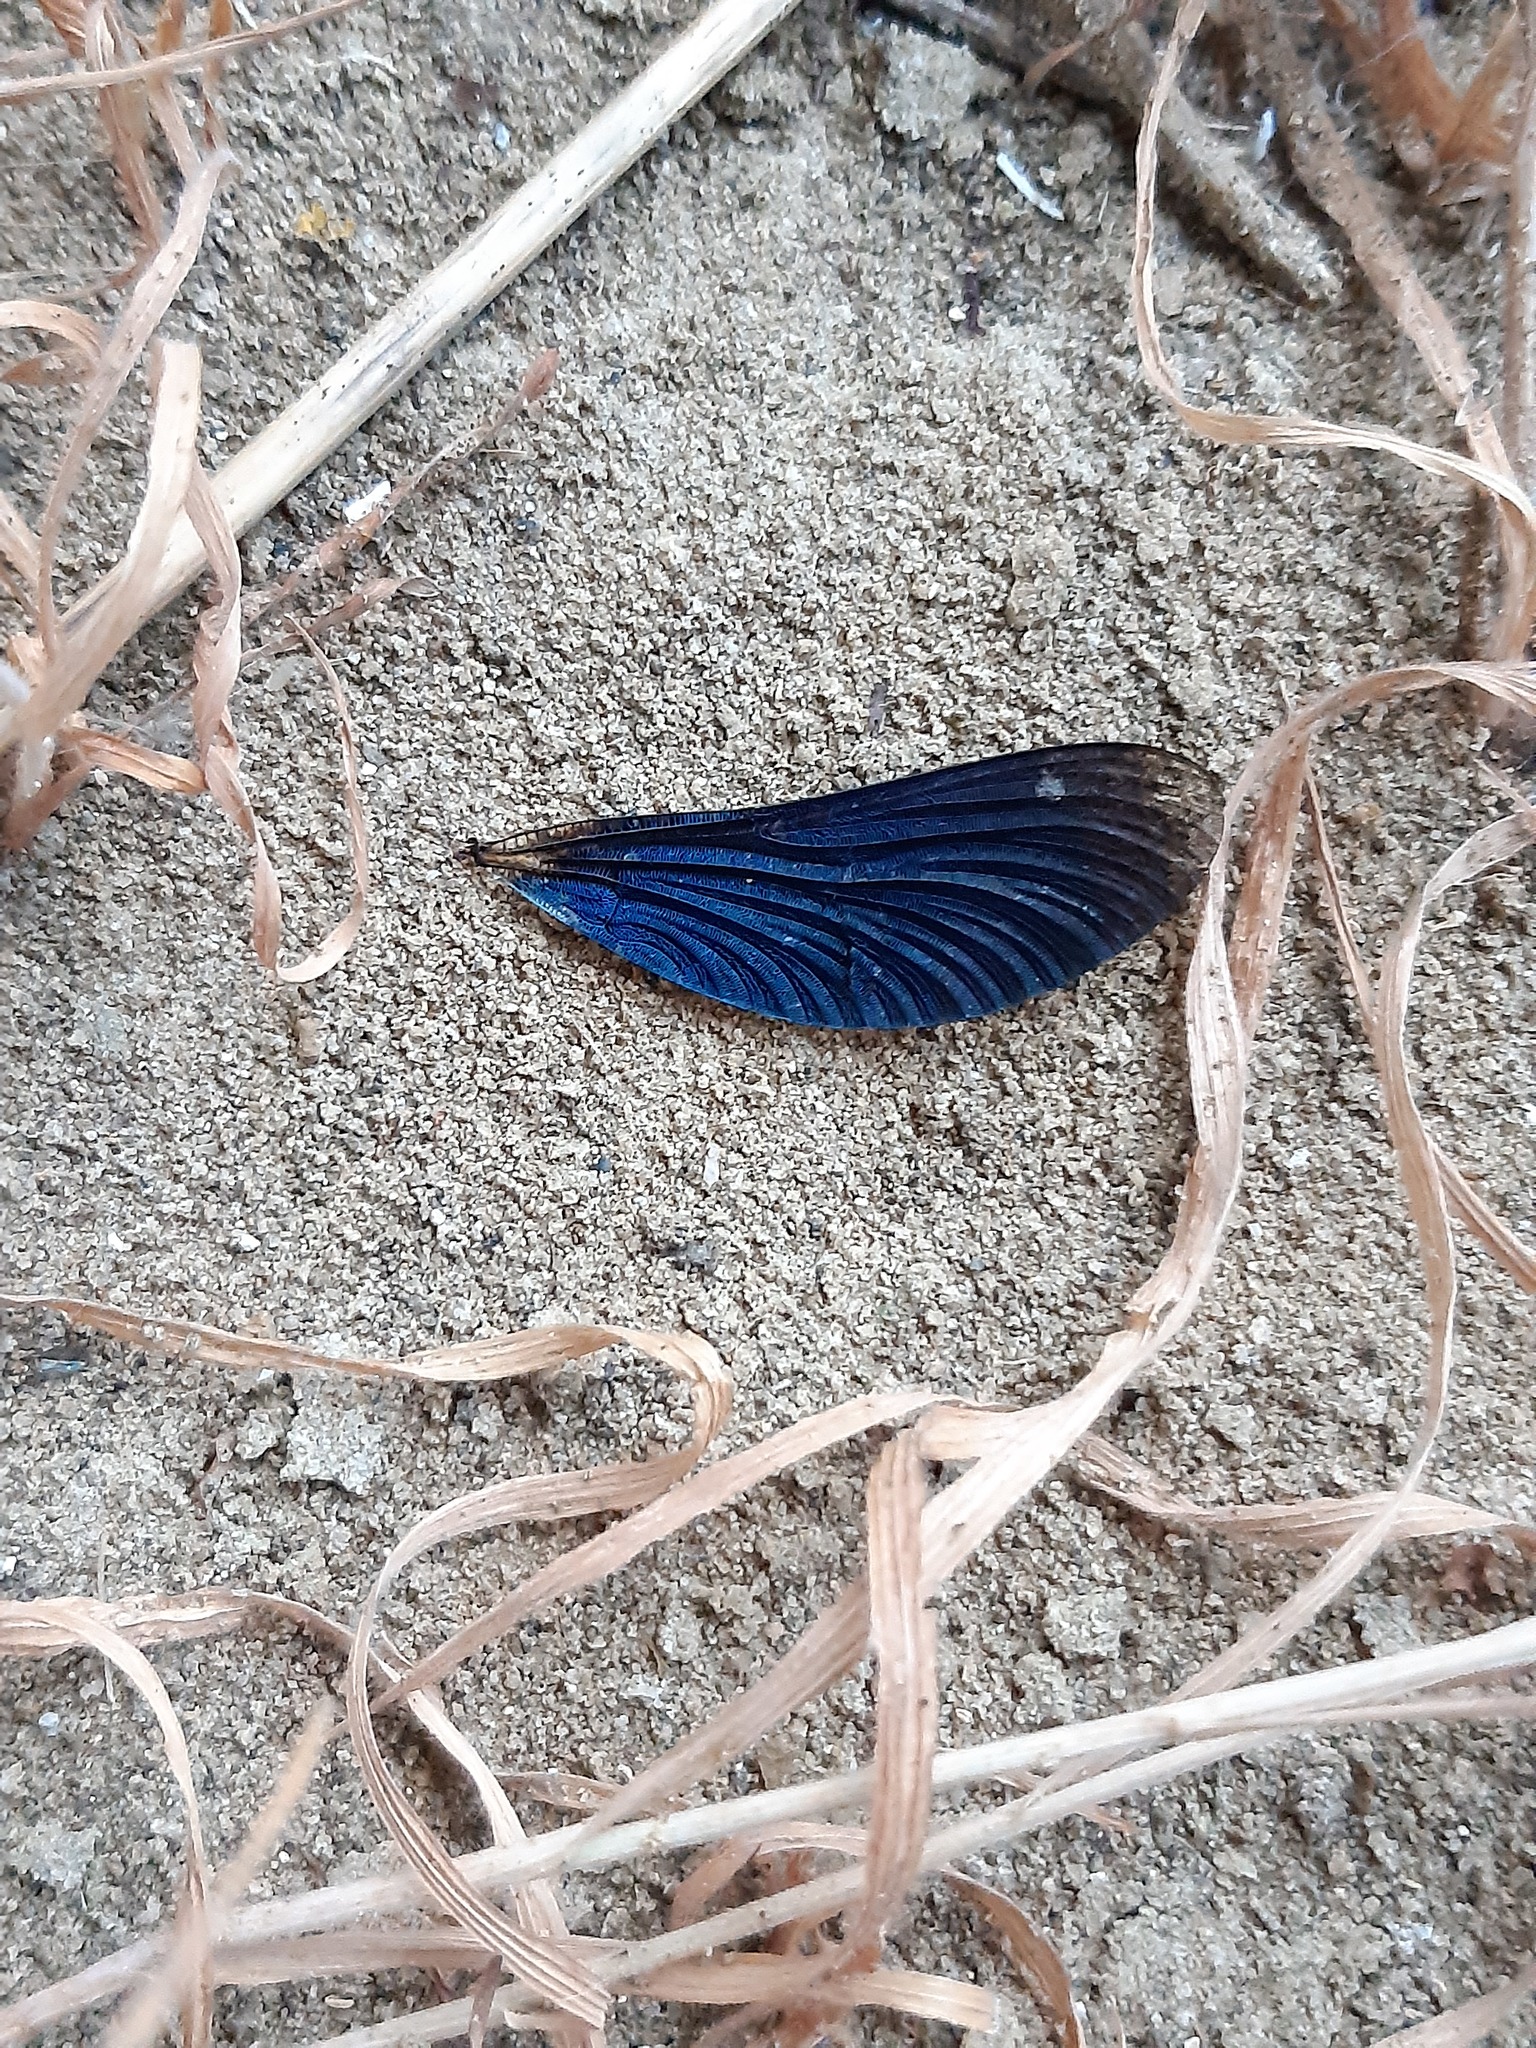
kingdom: Animalia
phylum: Arthropoda
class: Insecta
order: Odonata
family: Calopterygidae
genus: Calopteryx
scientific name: Calopteryx virgo
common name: Beautiful demoiselle
